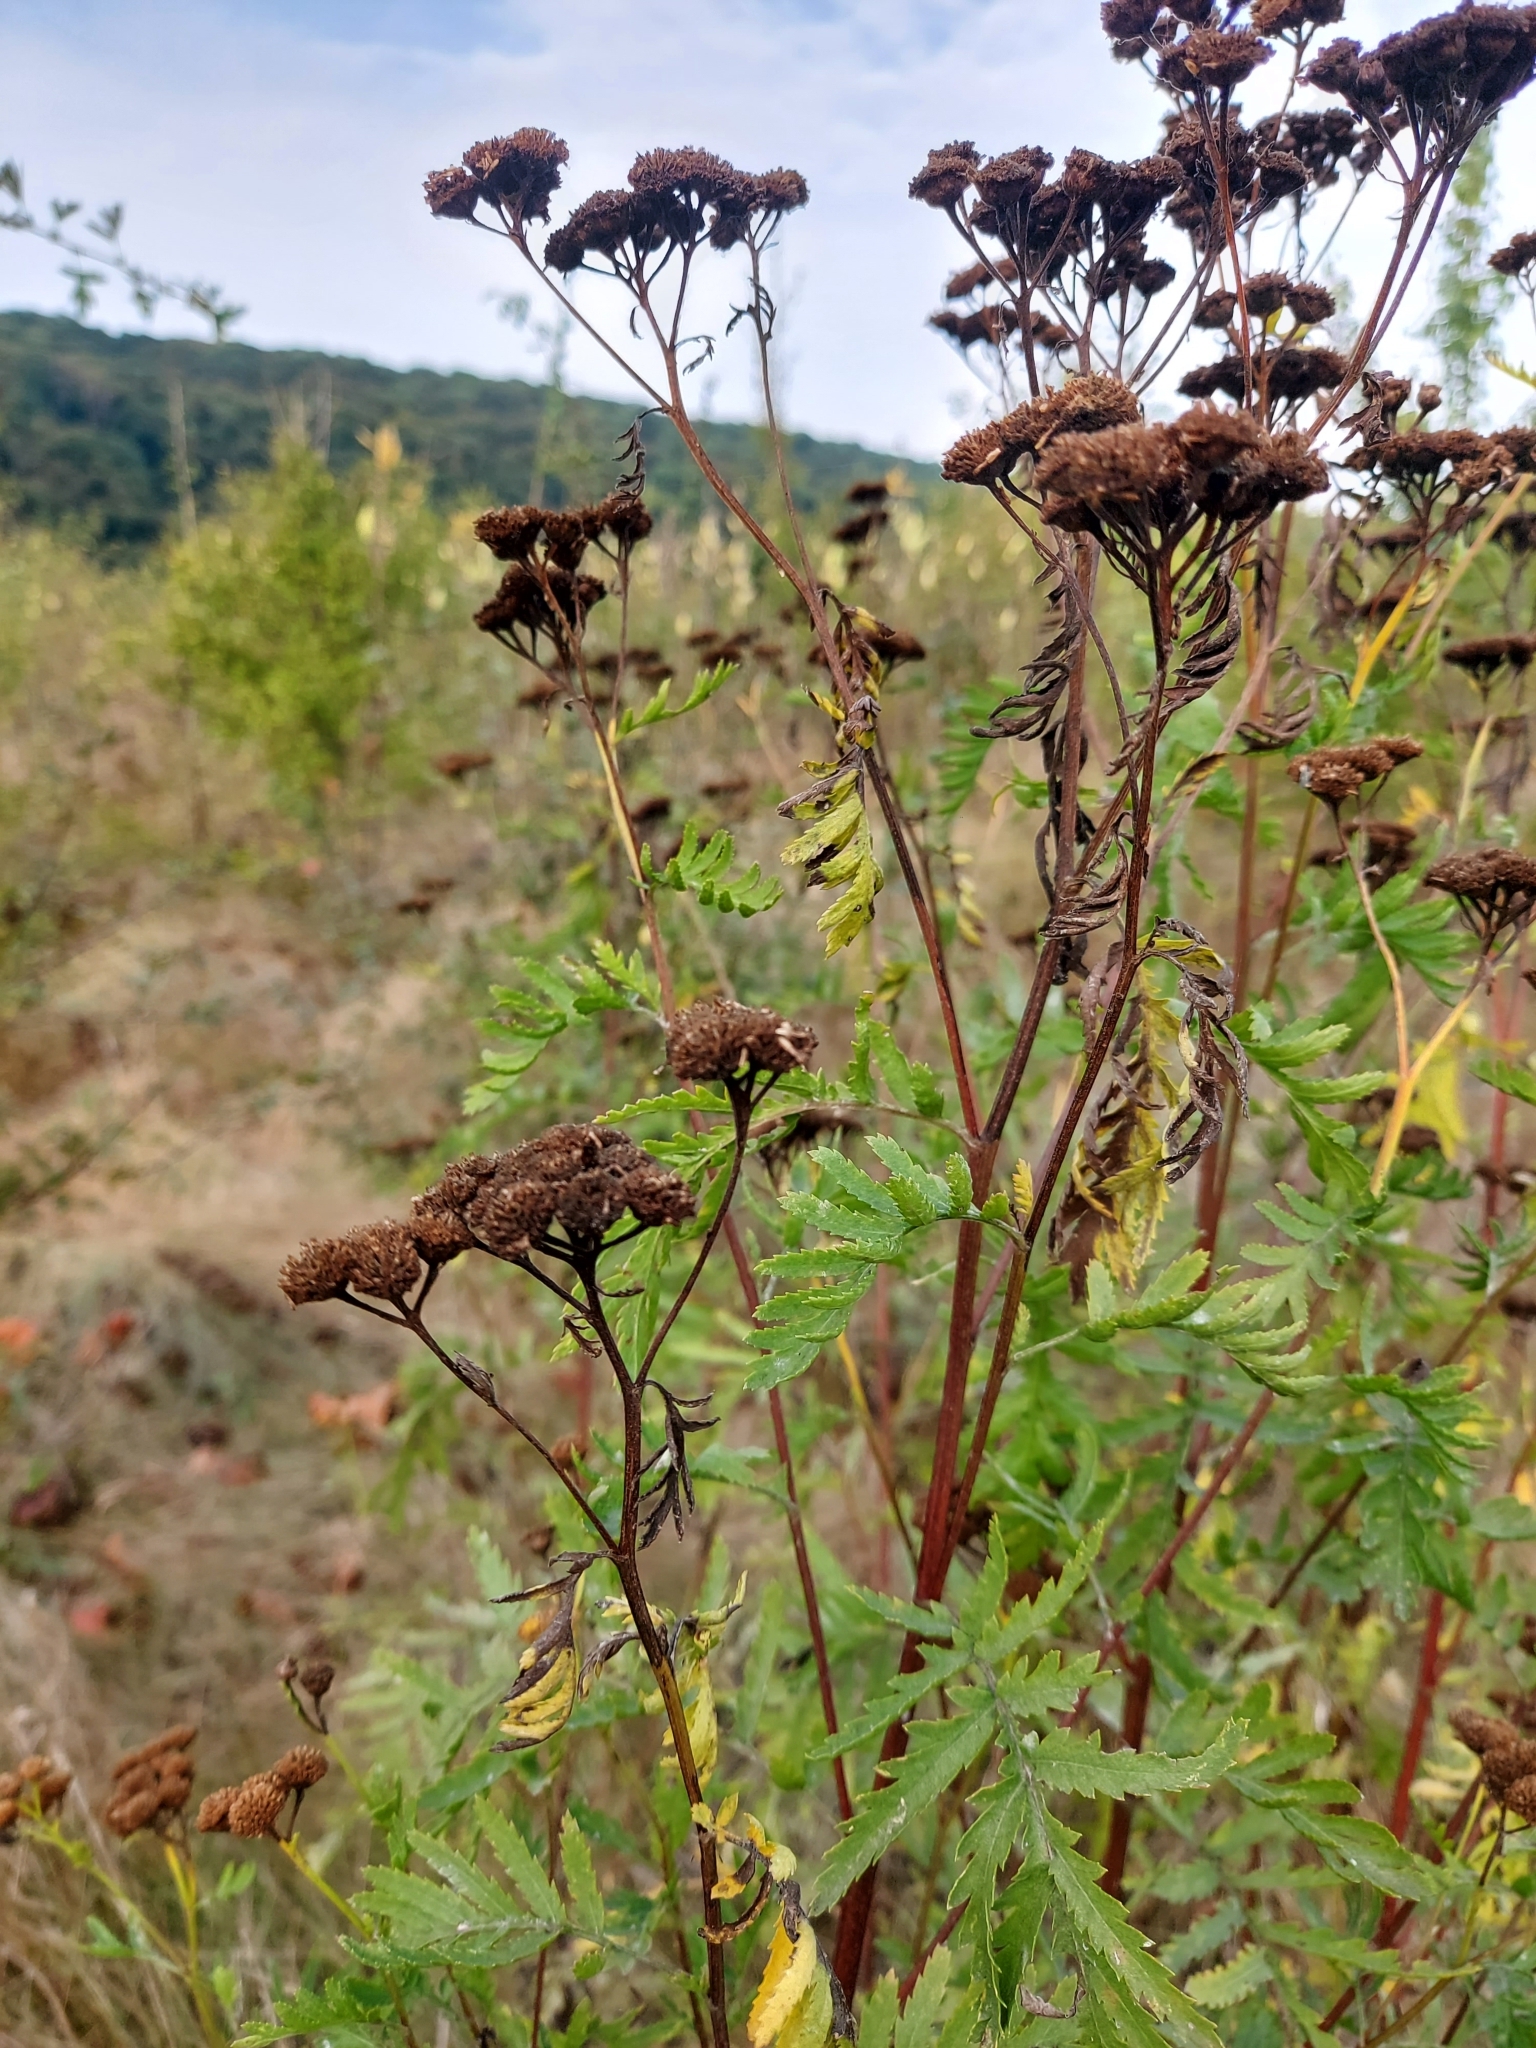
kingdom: Plantae
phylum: Tracheophyta
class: Magnoliopsida
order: Asterales
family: Asteraceae
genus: Tanacetum
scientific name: Tanacetum vulgare
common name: Common tansy
